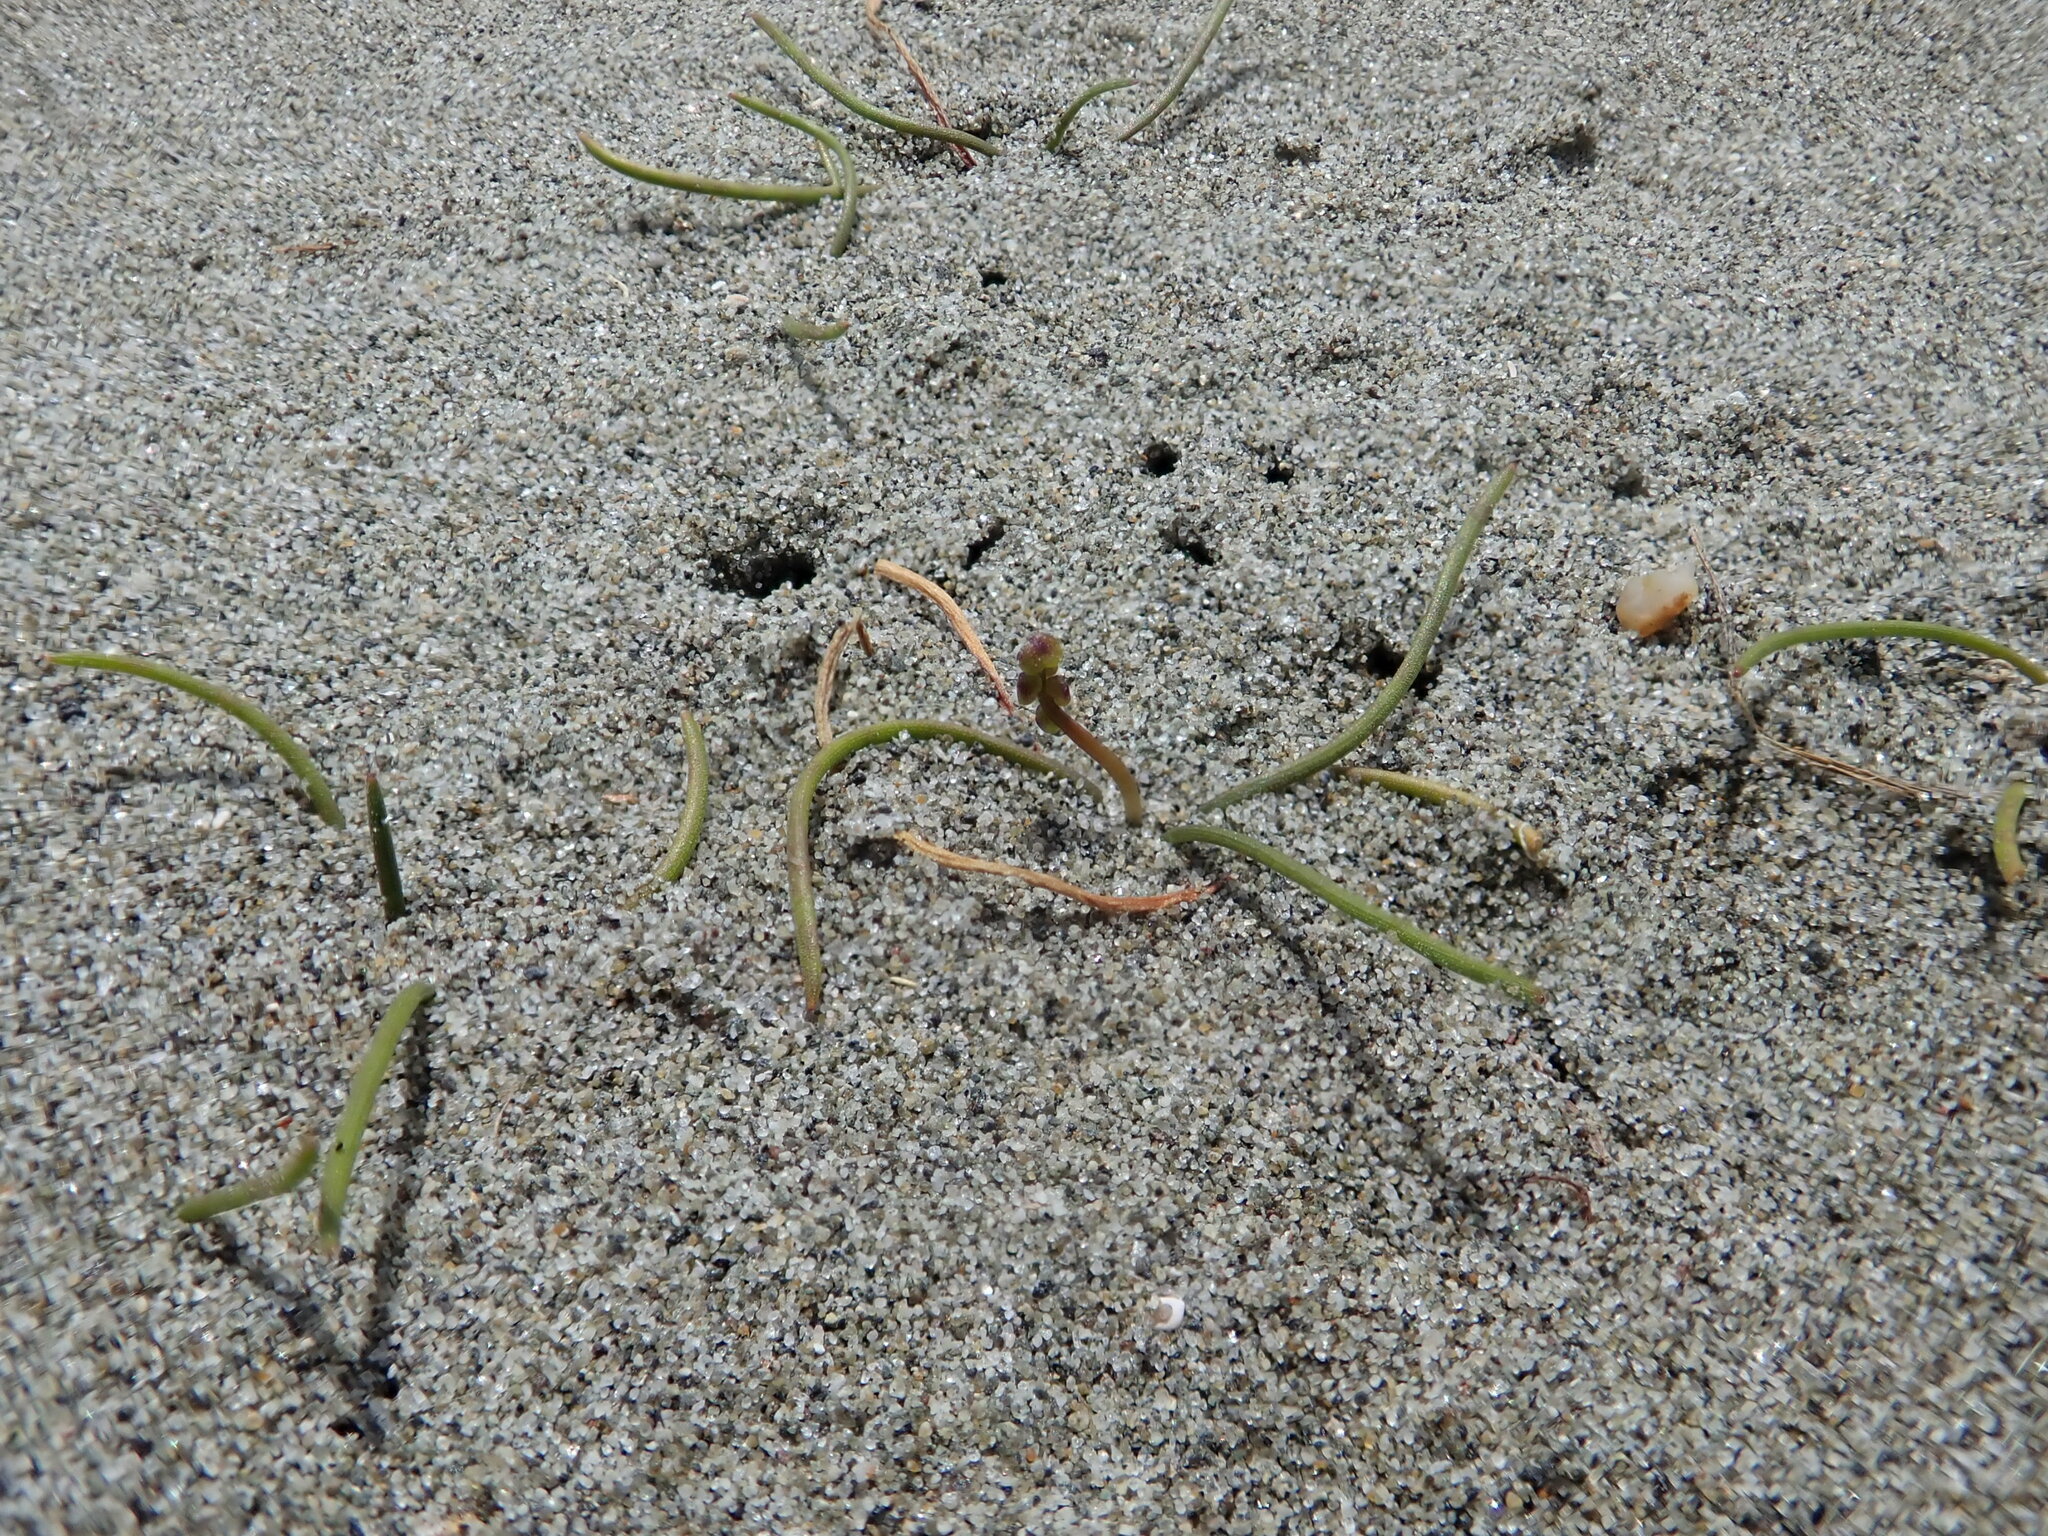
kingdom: Plantae
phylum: Tracheophyta
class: Liliopsida
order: Alismatales
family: Juncaginaceae
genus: Triglochin
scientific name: Triglochin striata
